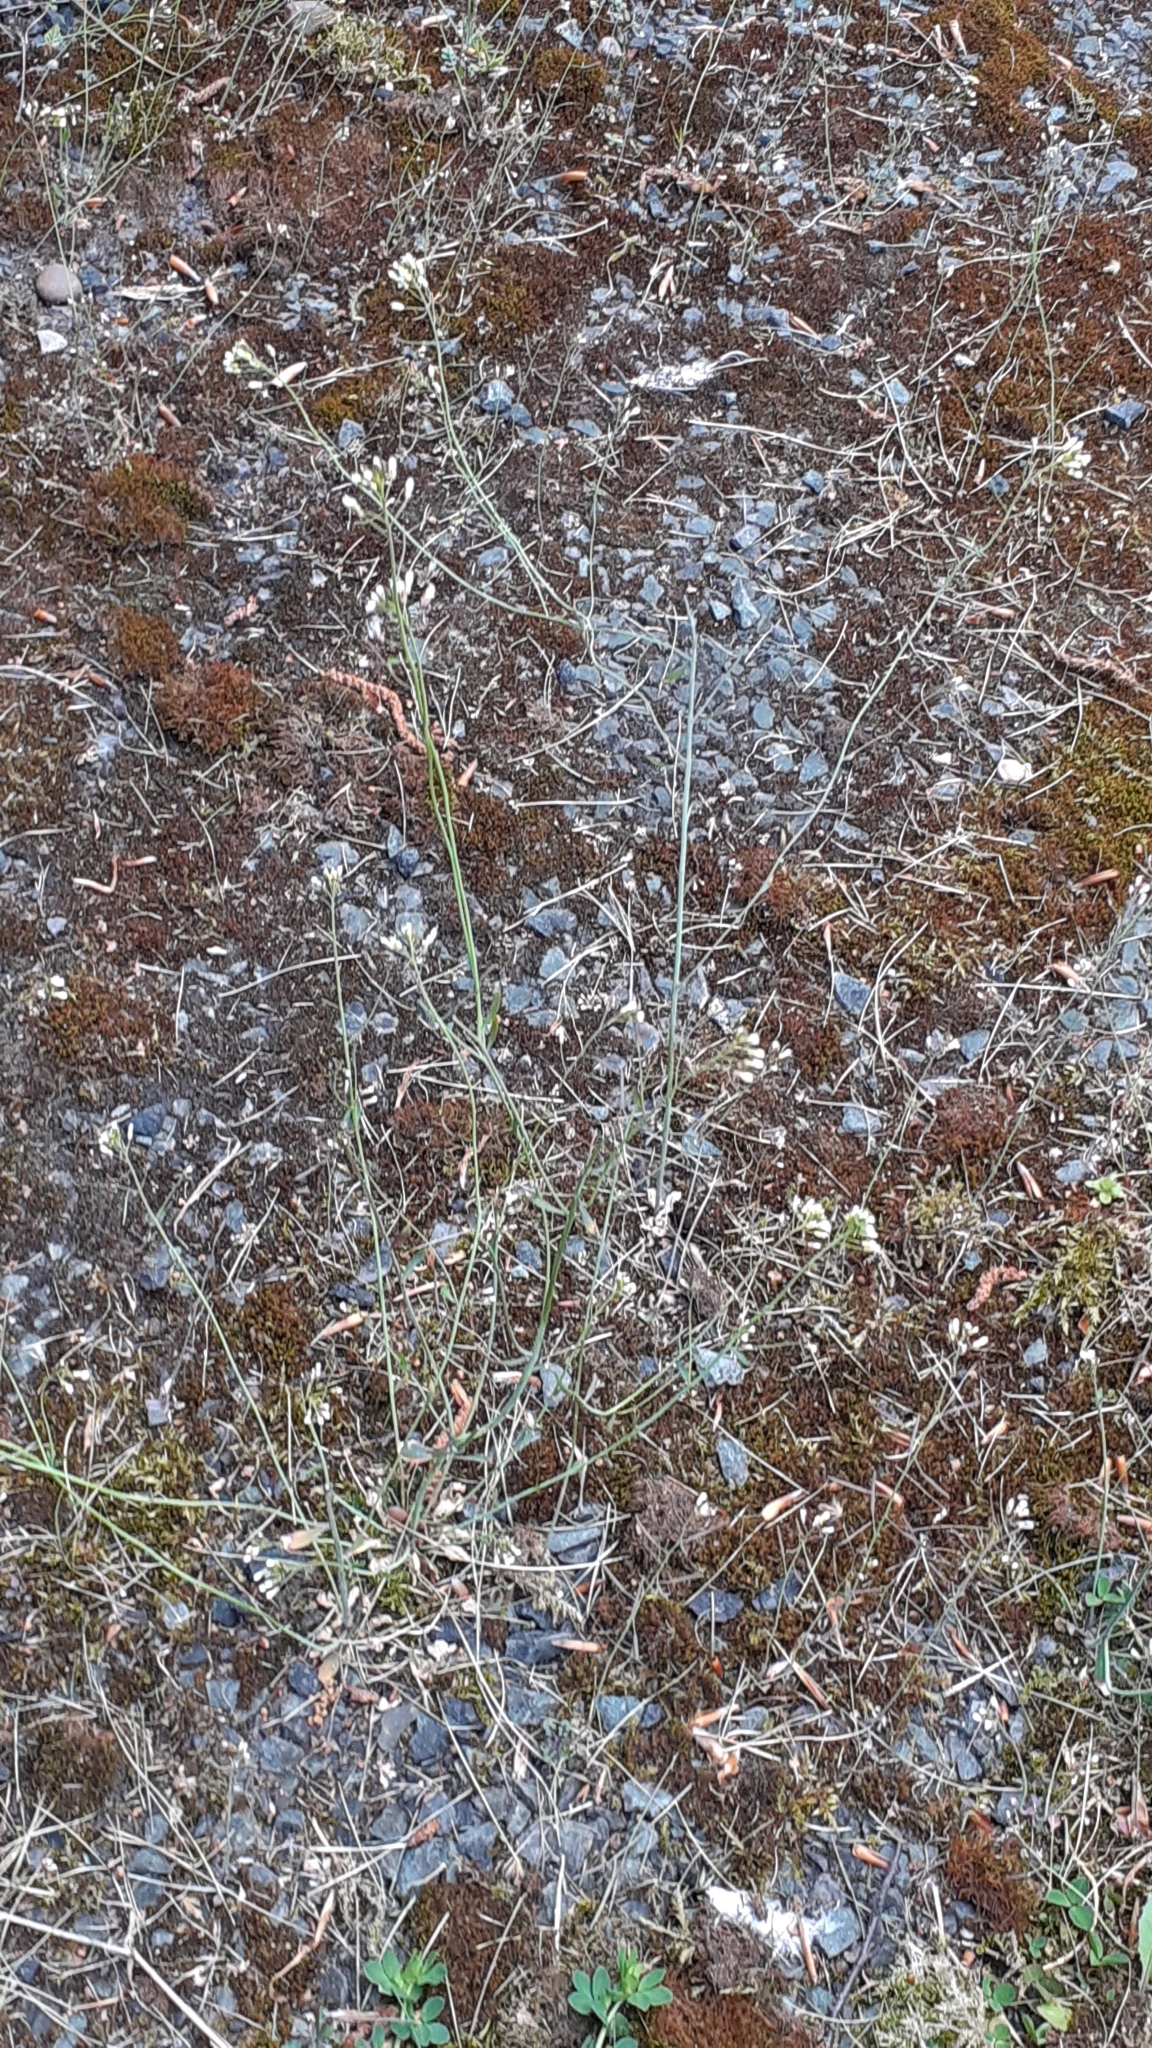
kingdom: Plantae
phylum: Tracheophyta
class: Magnoliopsida
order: Brassicales
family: Brassicaceae
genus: Arabidopsis
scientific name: Arabidopsis thaliana
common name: Thale cress
